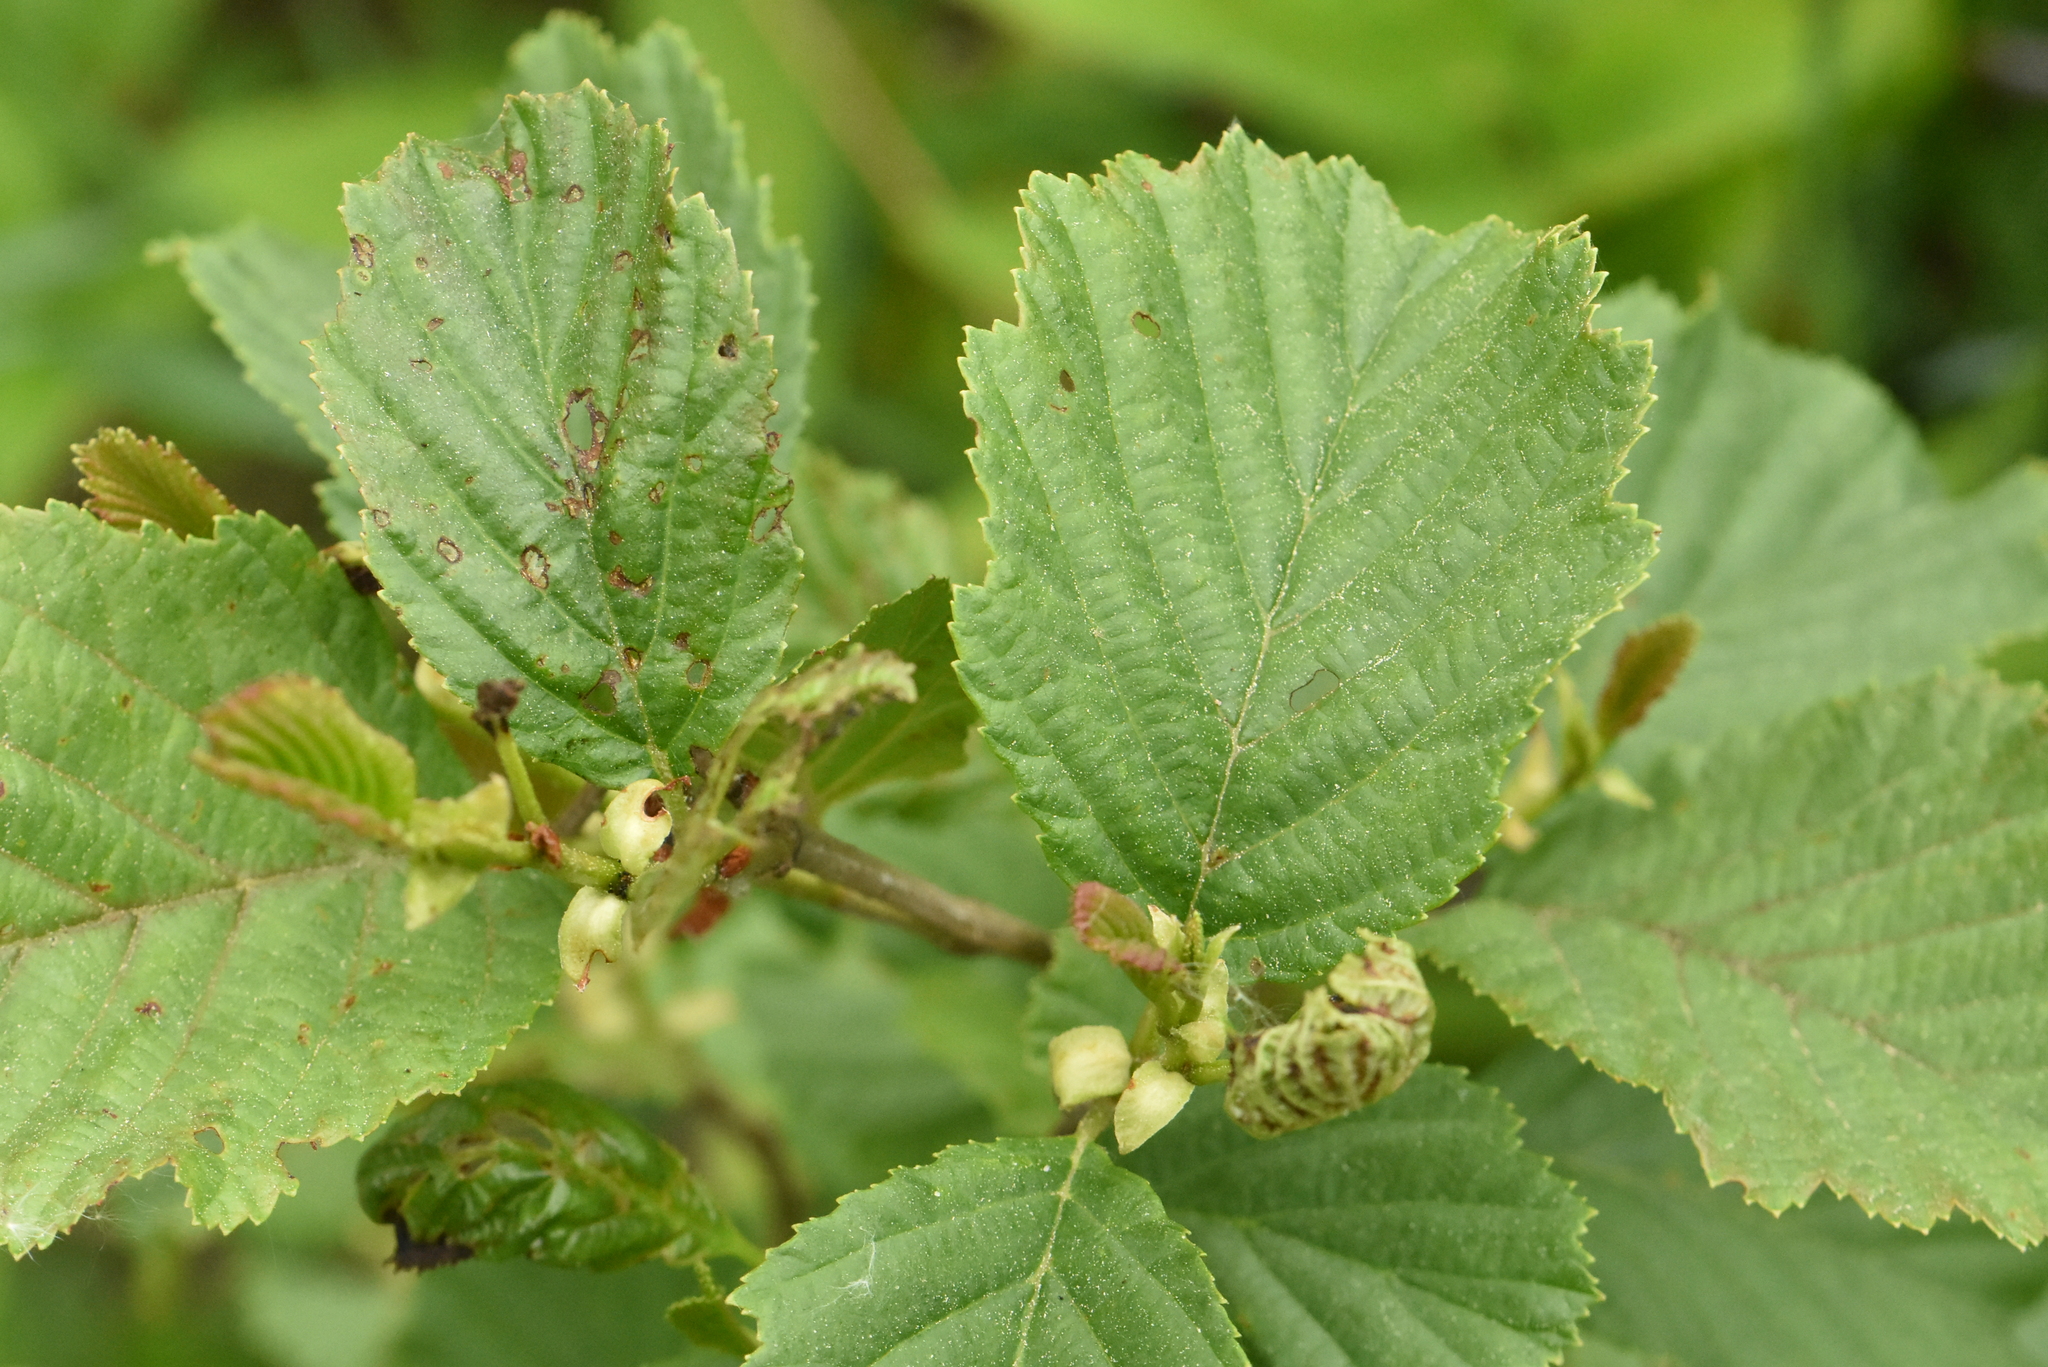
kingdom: Plantae
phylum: Tracheophyta
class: Magnoliopsida
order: Fagales
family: Betulaceae
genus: Alnus
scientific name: Alnus glutinosa
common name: Black alder
